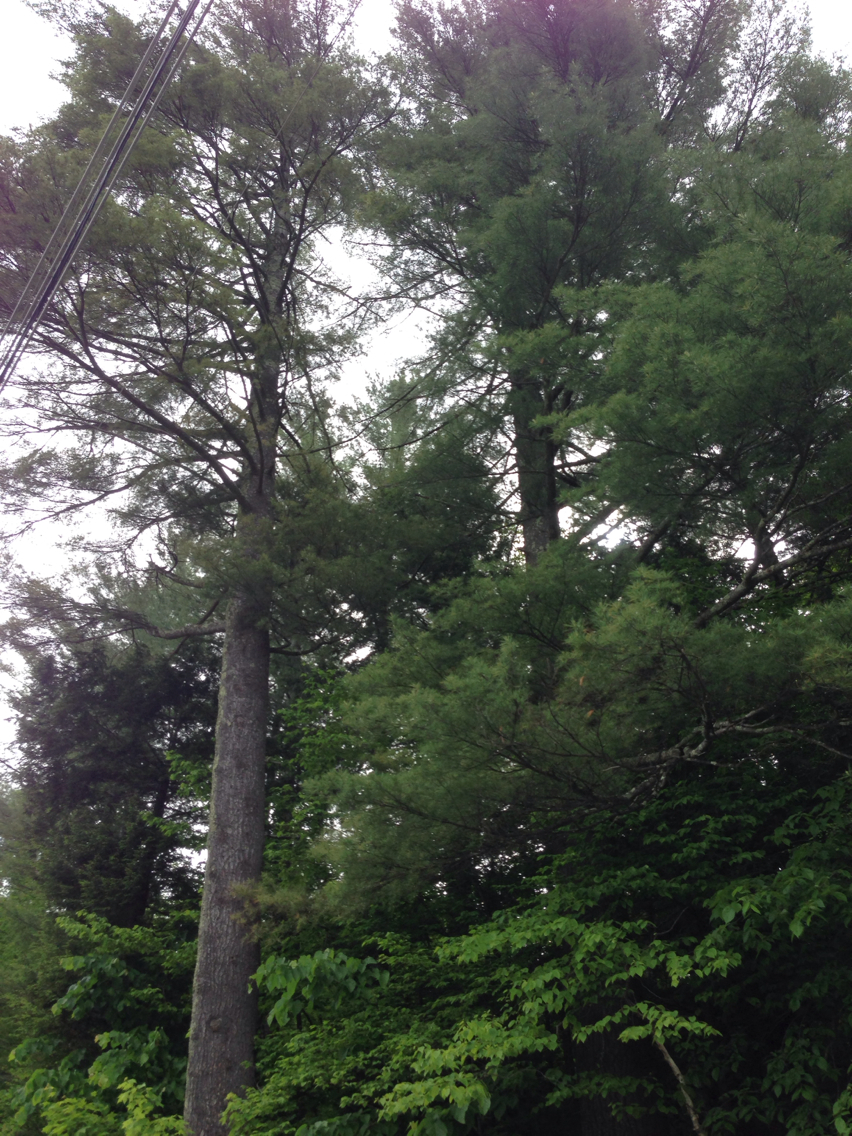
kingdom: Plantae
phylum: Tracheophyta
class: Pinopsida
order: Pinales
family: Pinaceae
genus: Pinus
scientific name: Pinus strobus
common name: Weymouth pine
